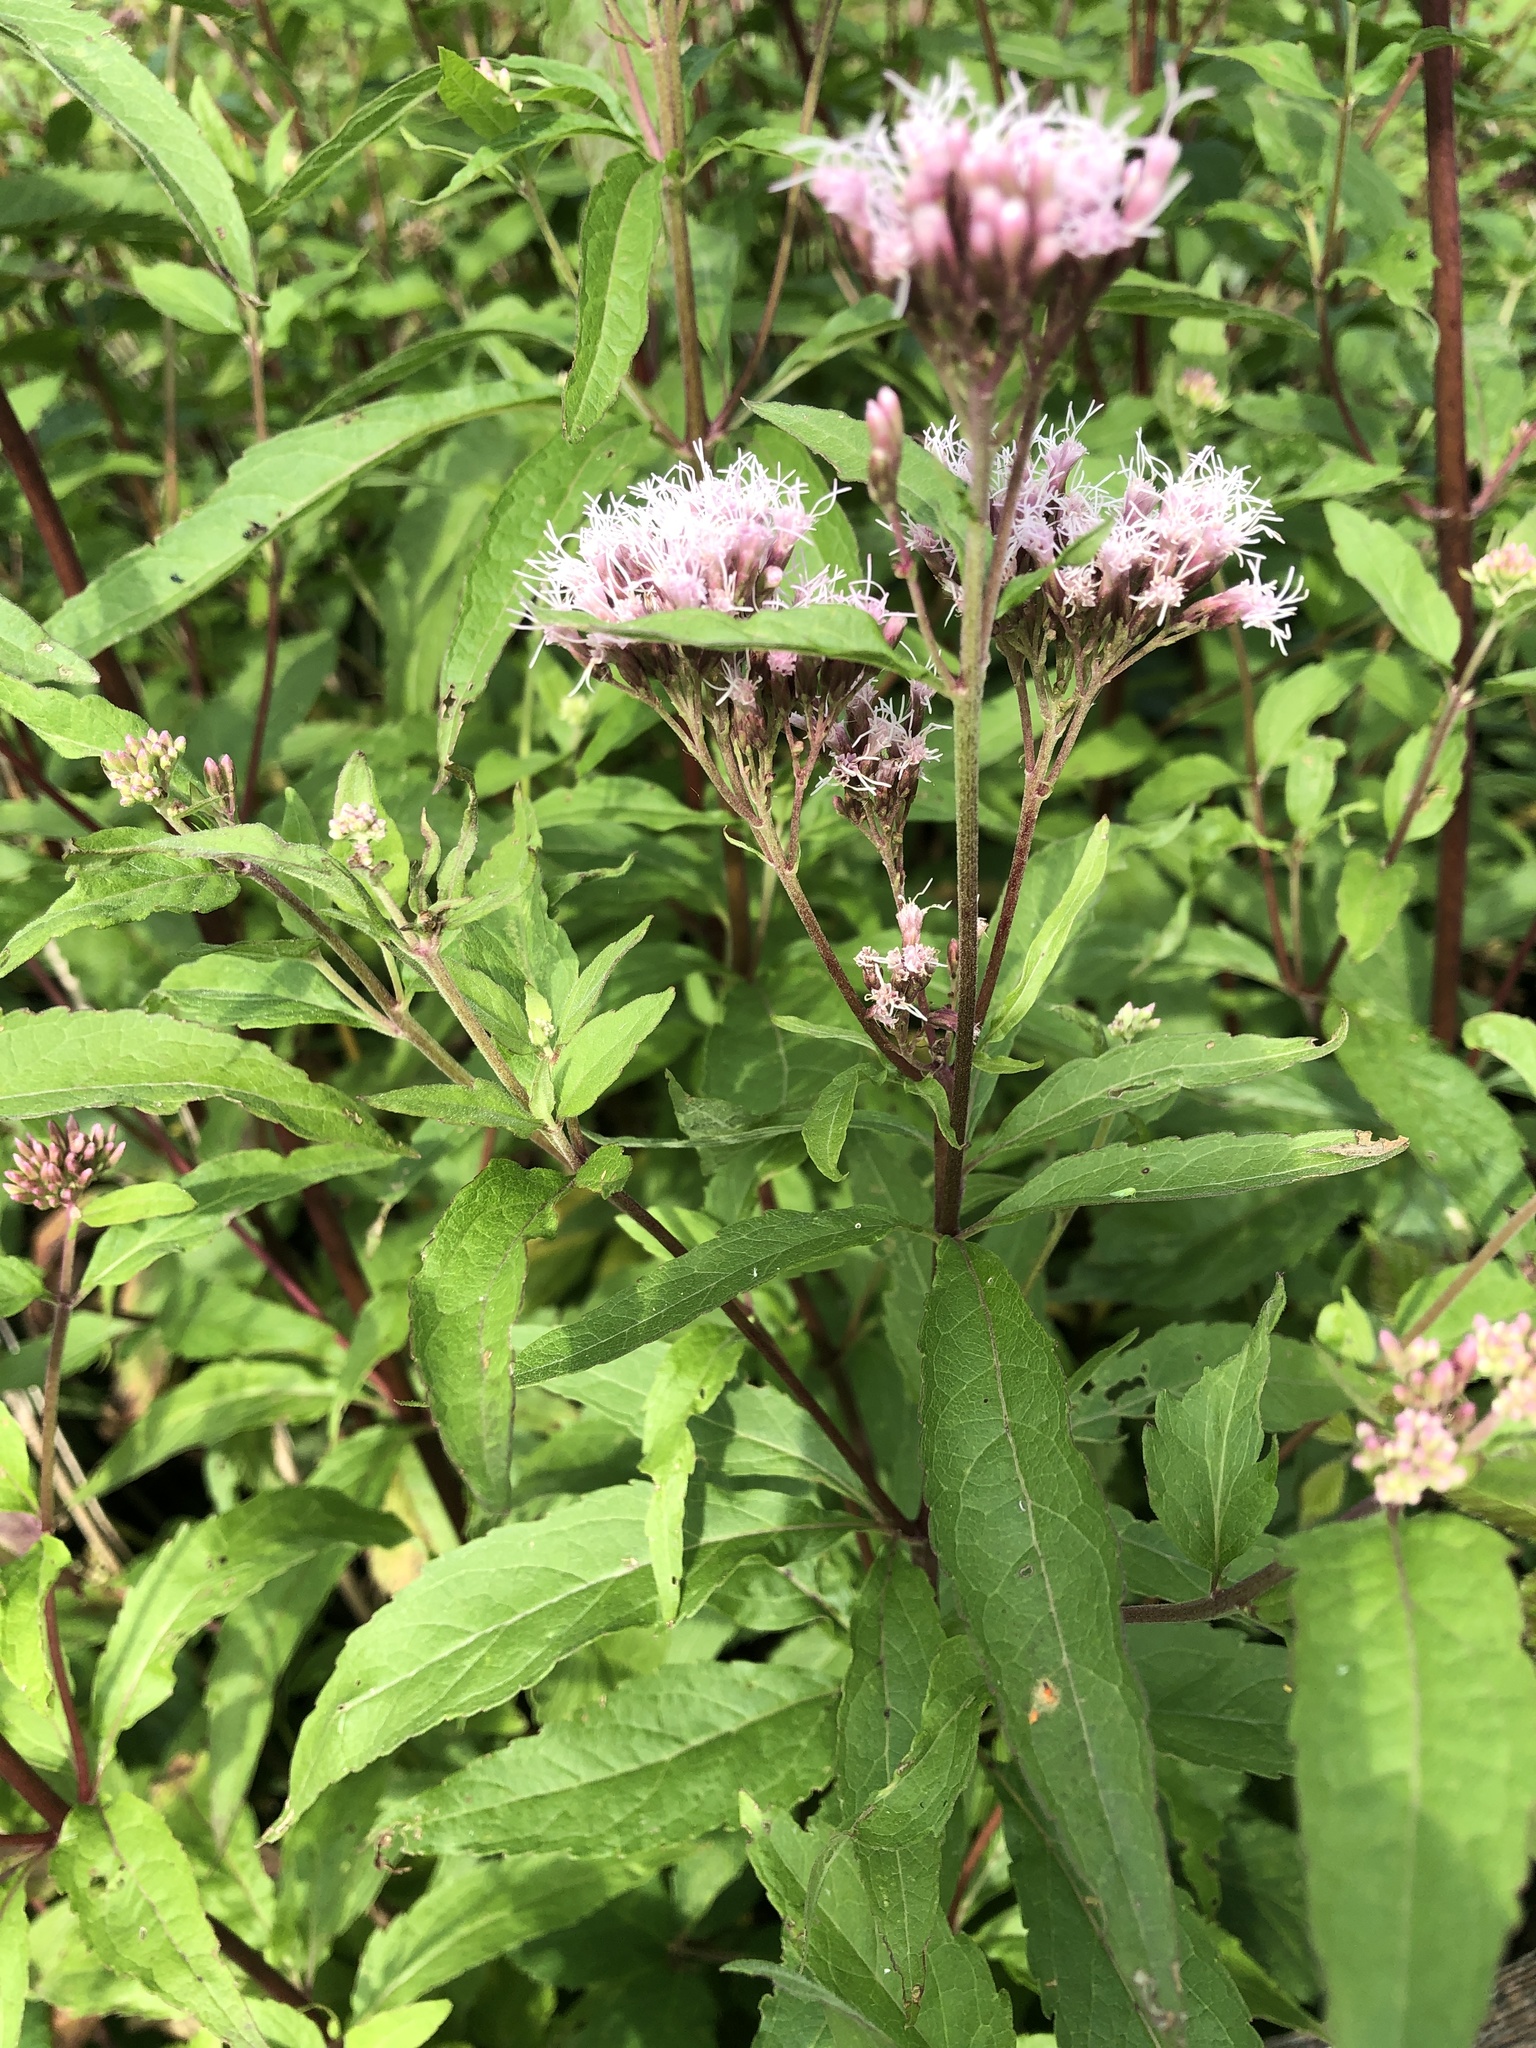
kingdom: Plantae
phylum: Tracheophyta
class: Magnoliopsida
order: Asterales
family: Asteraceae
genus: Eupatorium
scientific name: Eupatorium cannabinum
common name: Hemp-agrimony
